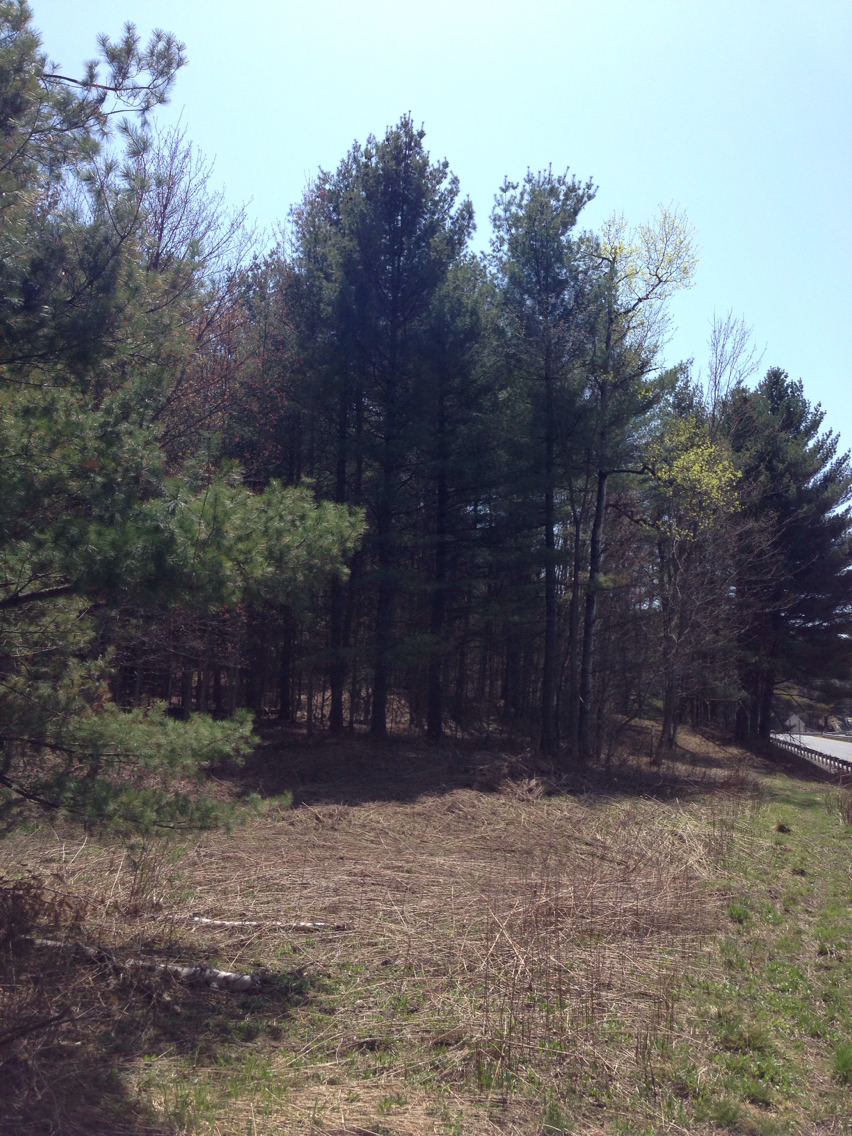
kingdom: Plantae
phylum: Tracheophyta
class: Pinopsida
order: Pinales
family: Pinaceae
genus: Pinus
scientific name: Pinus strobus
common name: Weymouth pine
